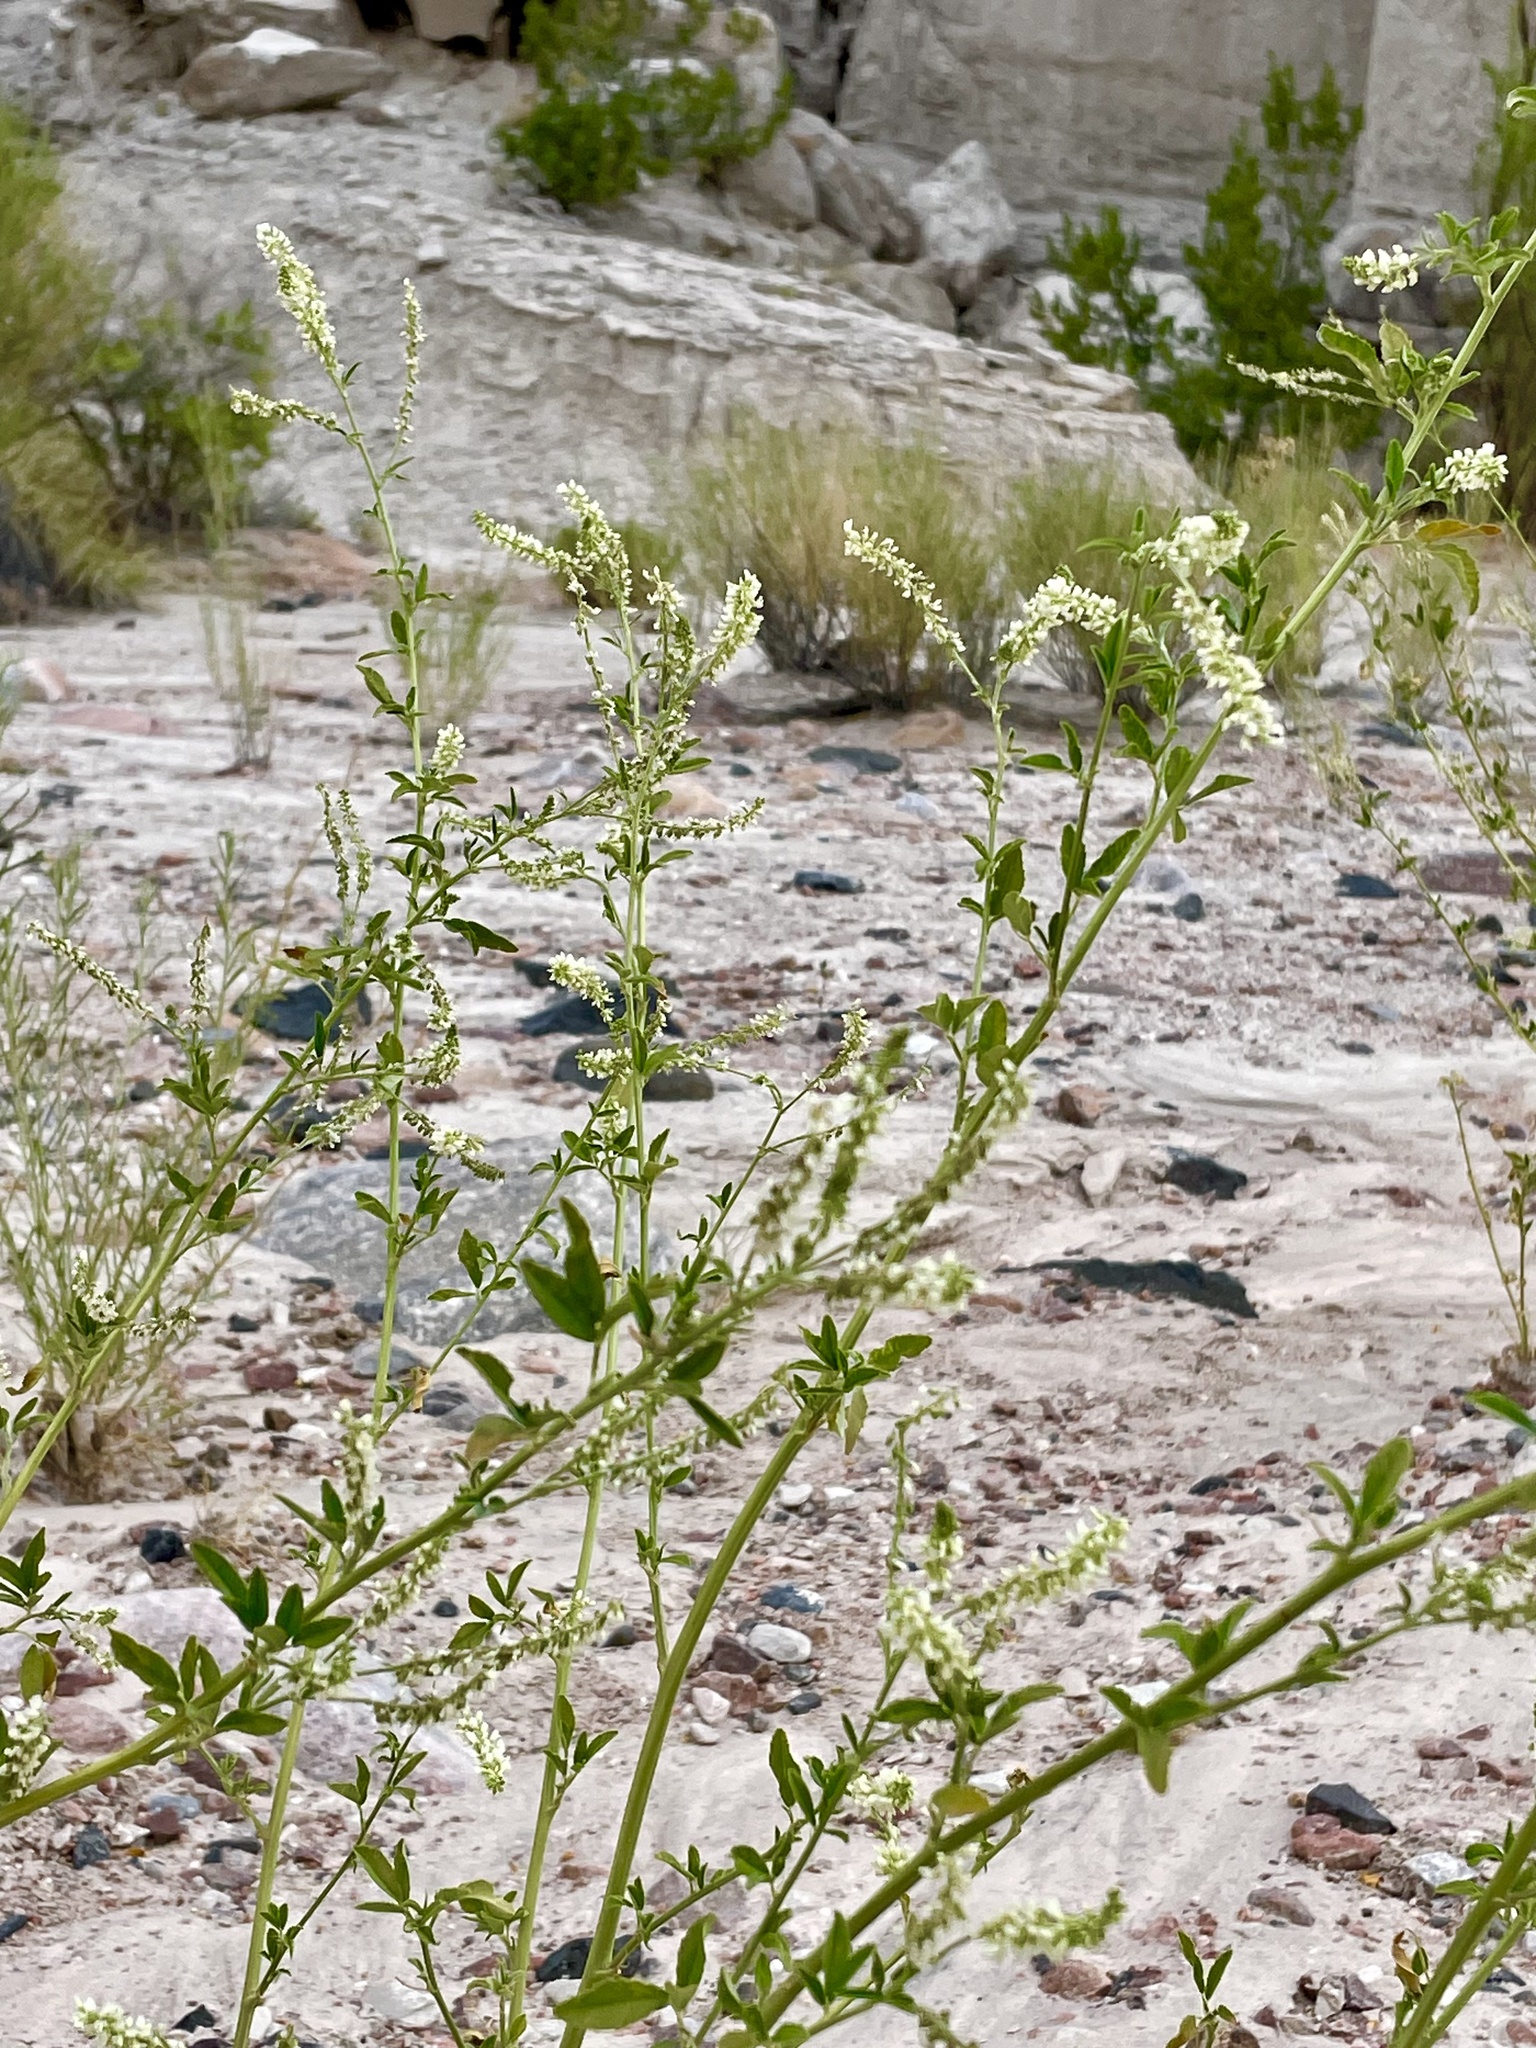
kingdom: Plantae
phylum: Tracheophyta
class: Magnoliopsida
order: Fabales
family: Fabaceae
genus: Melilotus
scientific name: Melilotus albus
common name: White melilot
